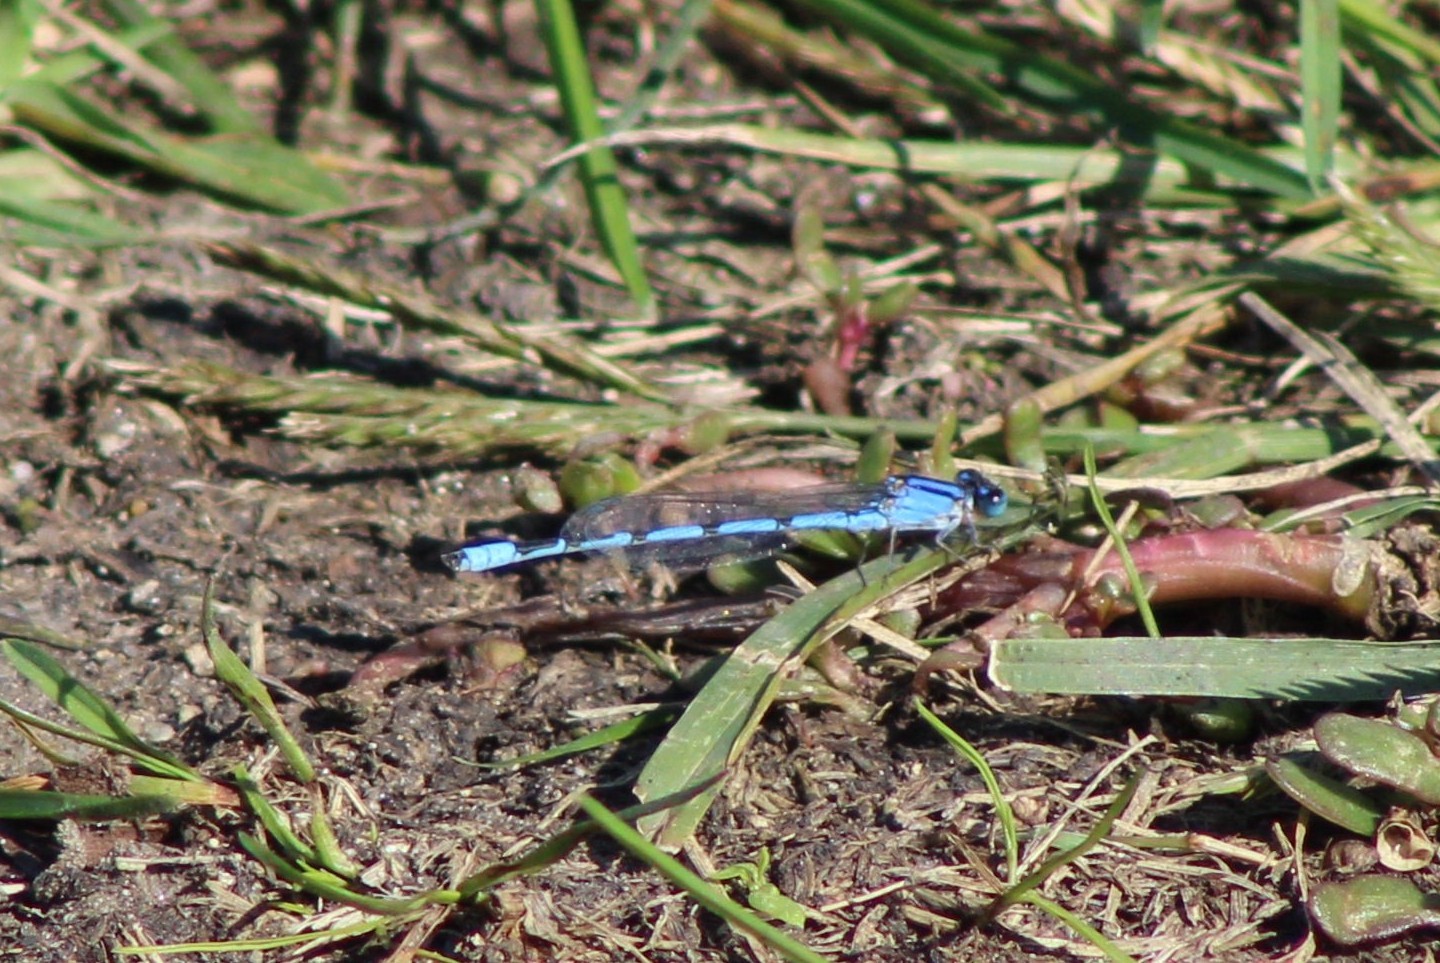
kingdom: Animalia
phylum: Arthropoda
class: Insecta
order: Odonata
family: Coenagrionidae
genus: Enallagma
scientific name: Enallagma civile
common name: Damselfly
